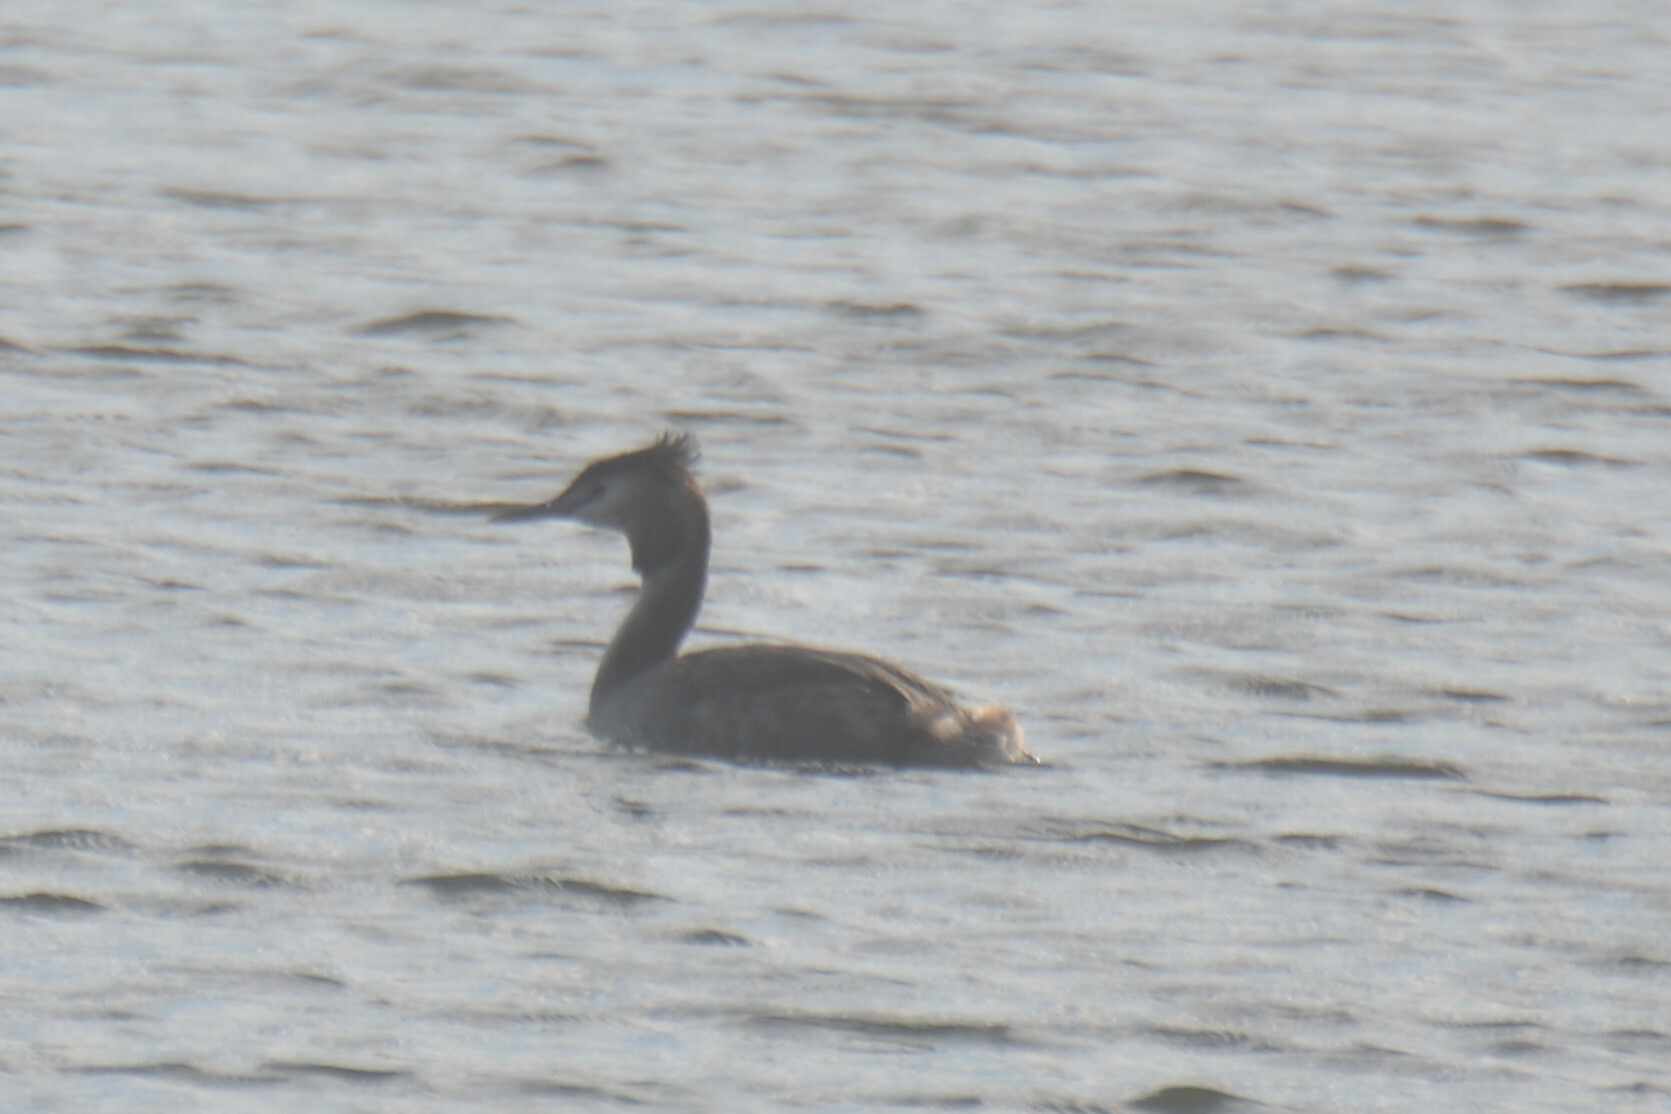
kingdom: Animalia
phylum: Chordata
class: Aves
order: Podicipediformes
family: Podicipedidae
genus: Podiceps
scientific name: Podiceps cristatus
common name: Great crested grebe
